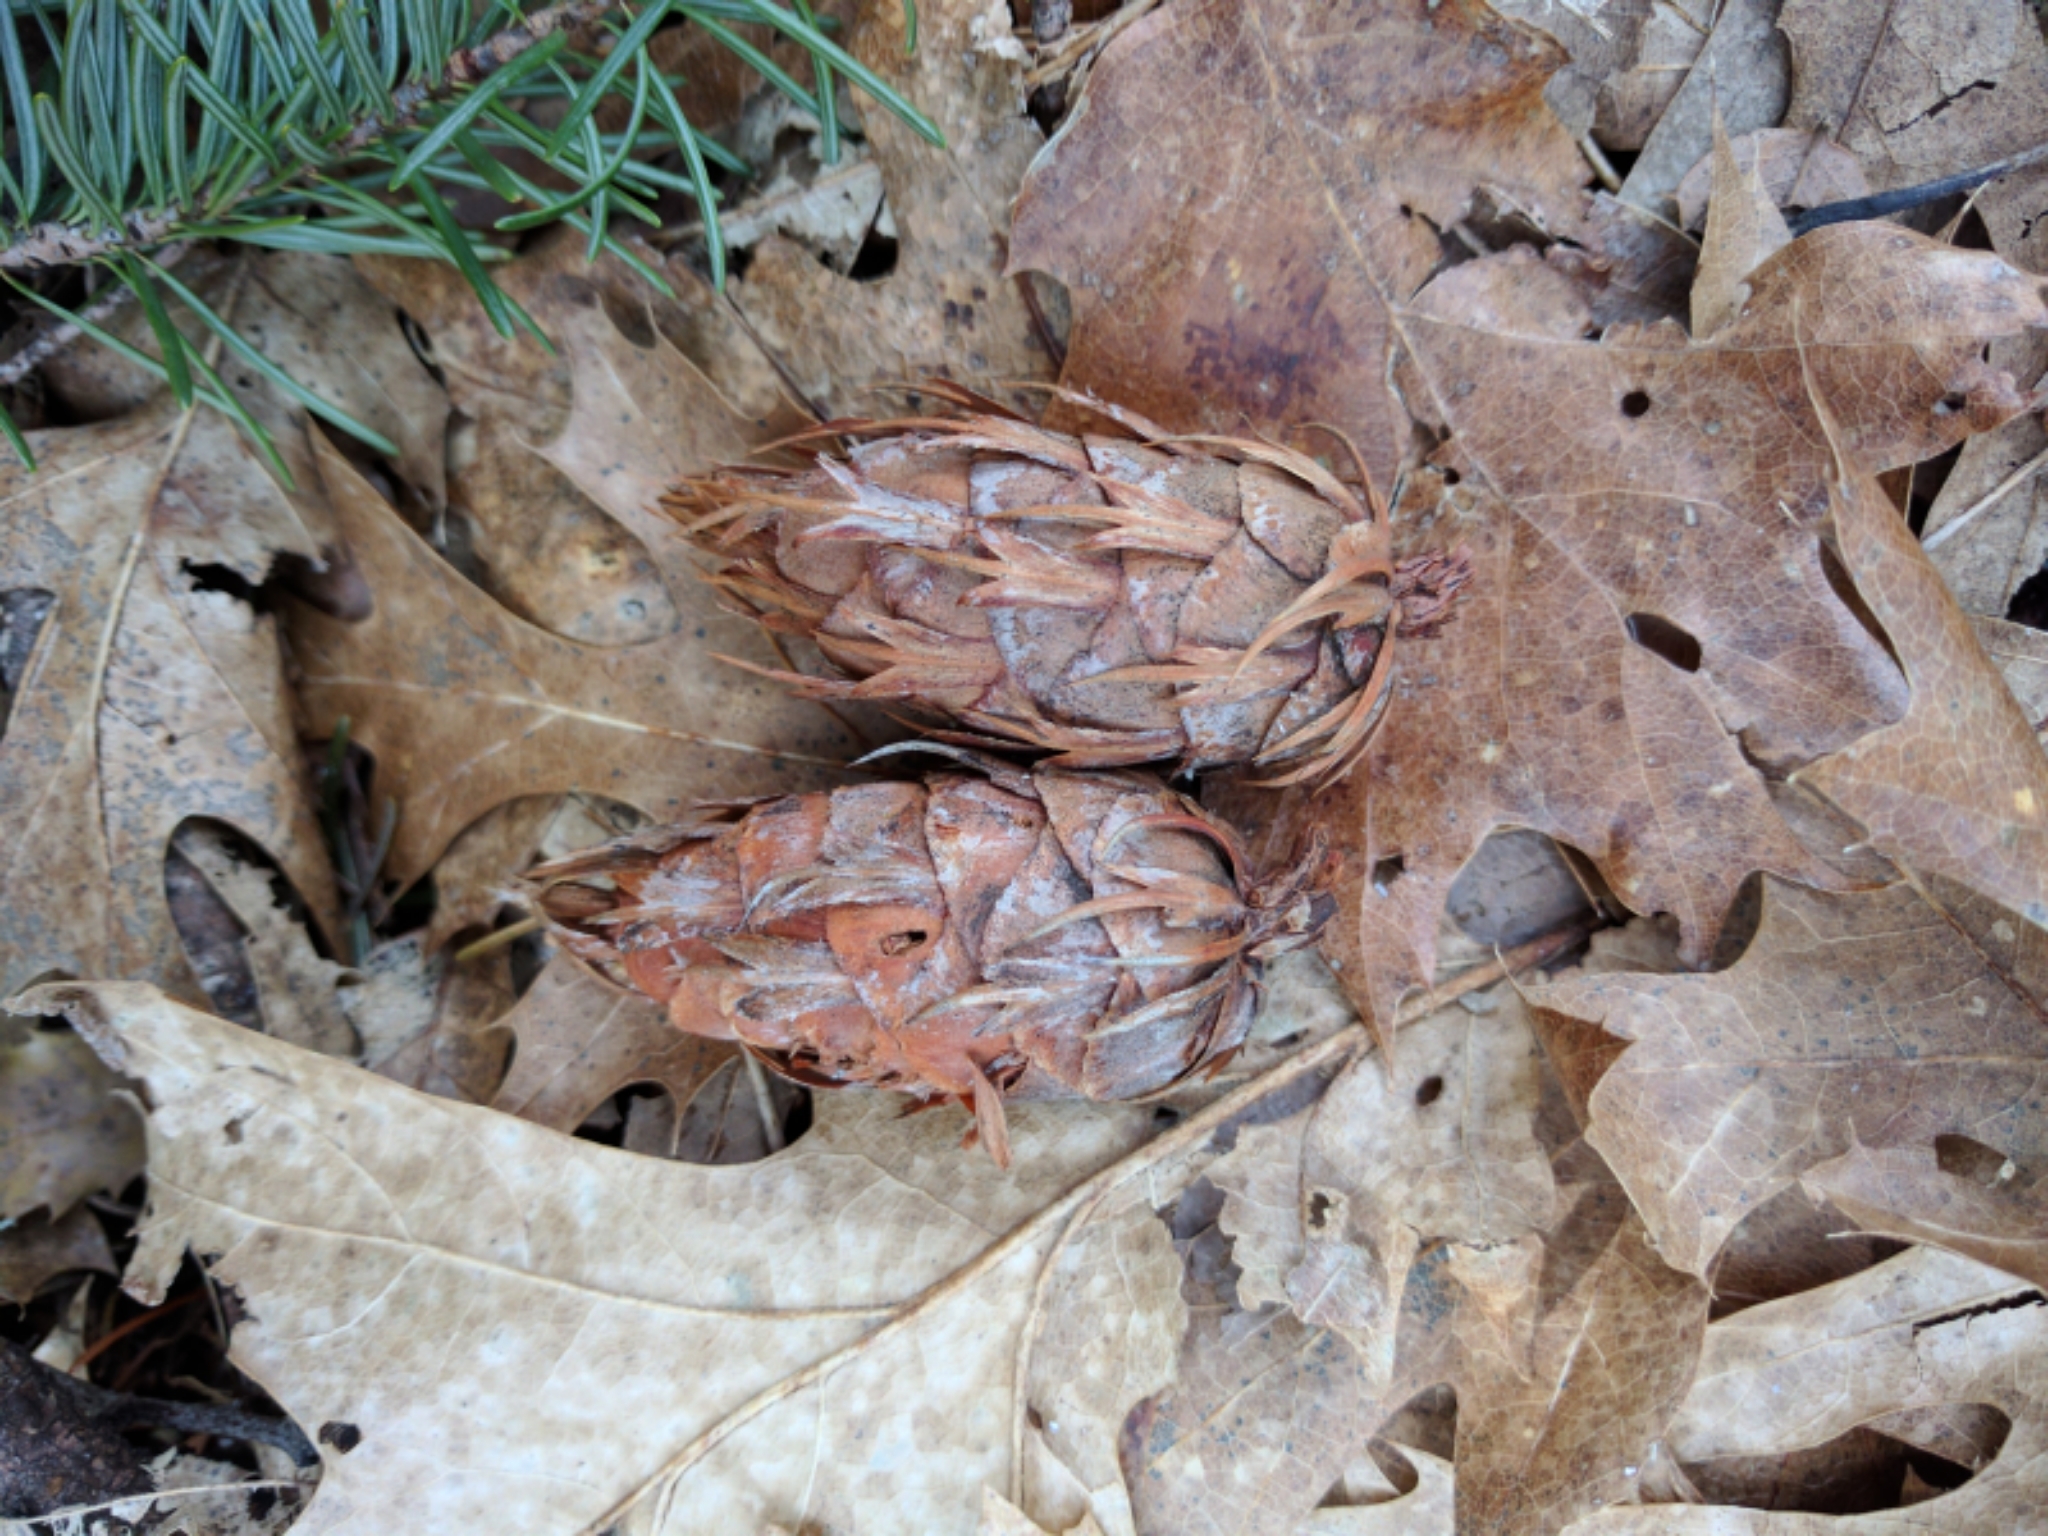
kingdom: Plantae
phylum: Tracheophyta
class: Pinopsida
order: Pinales
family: Pinaceae
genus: Pseudotsuga
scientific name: Pseudotsuga menziesii
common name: Douglas fir
